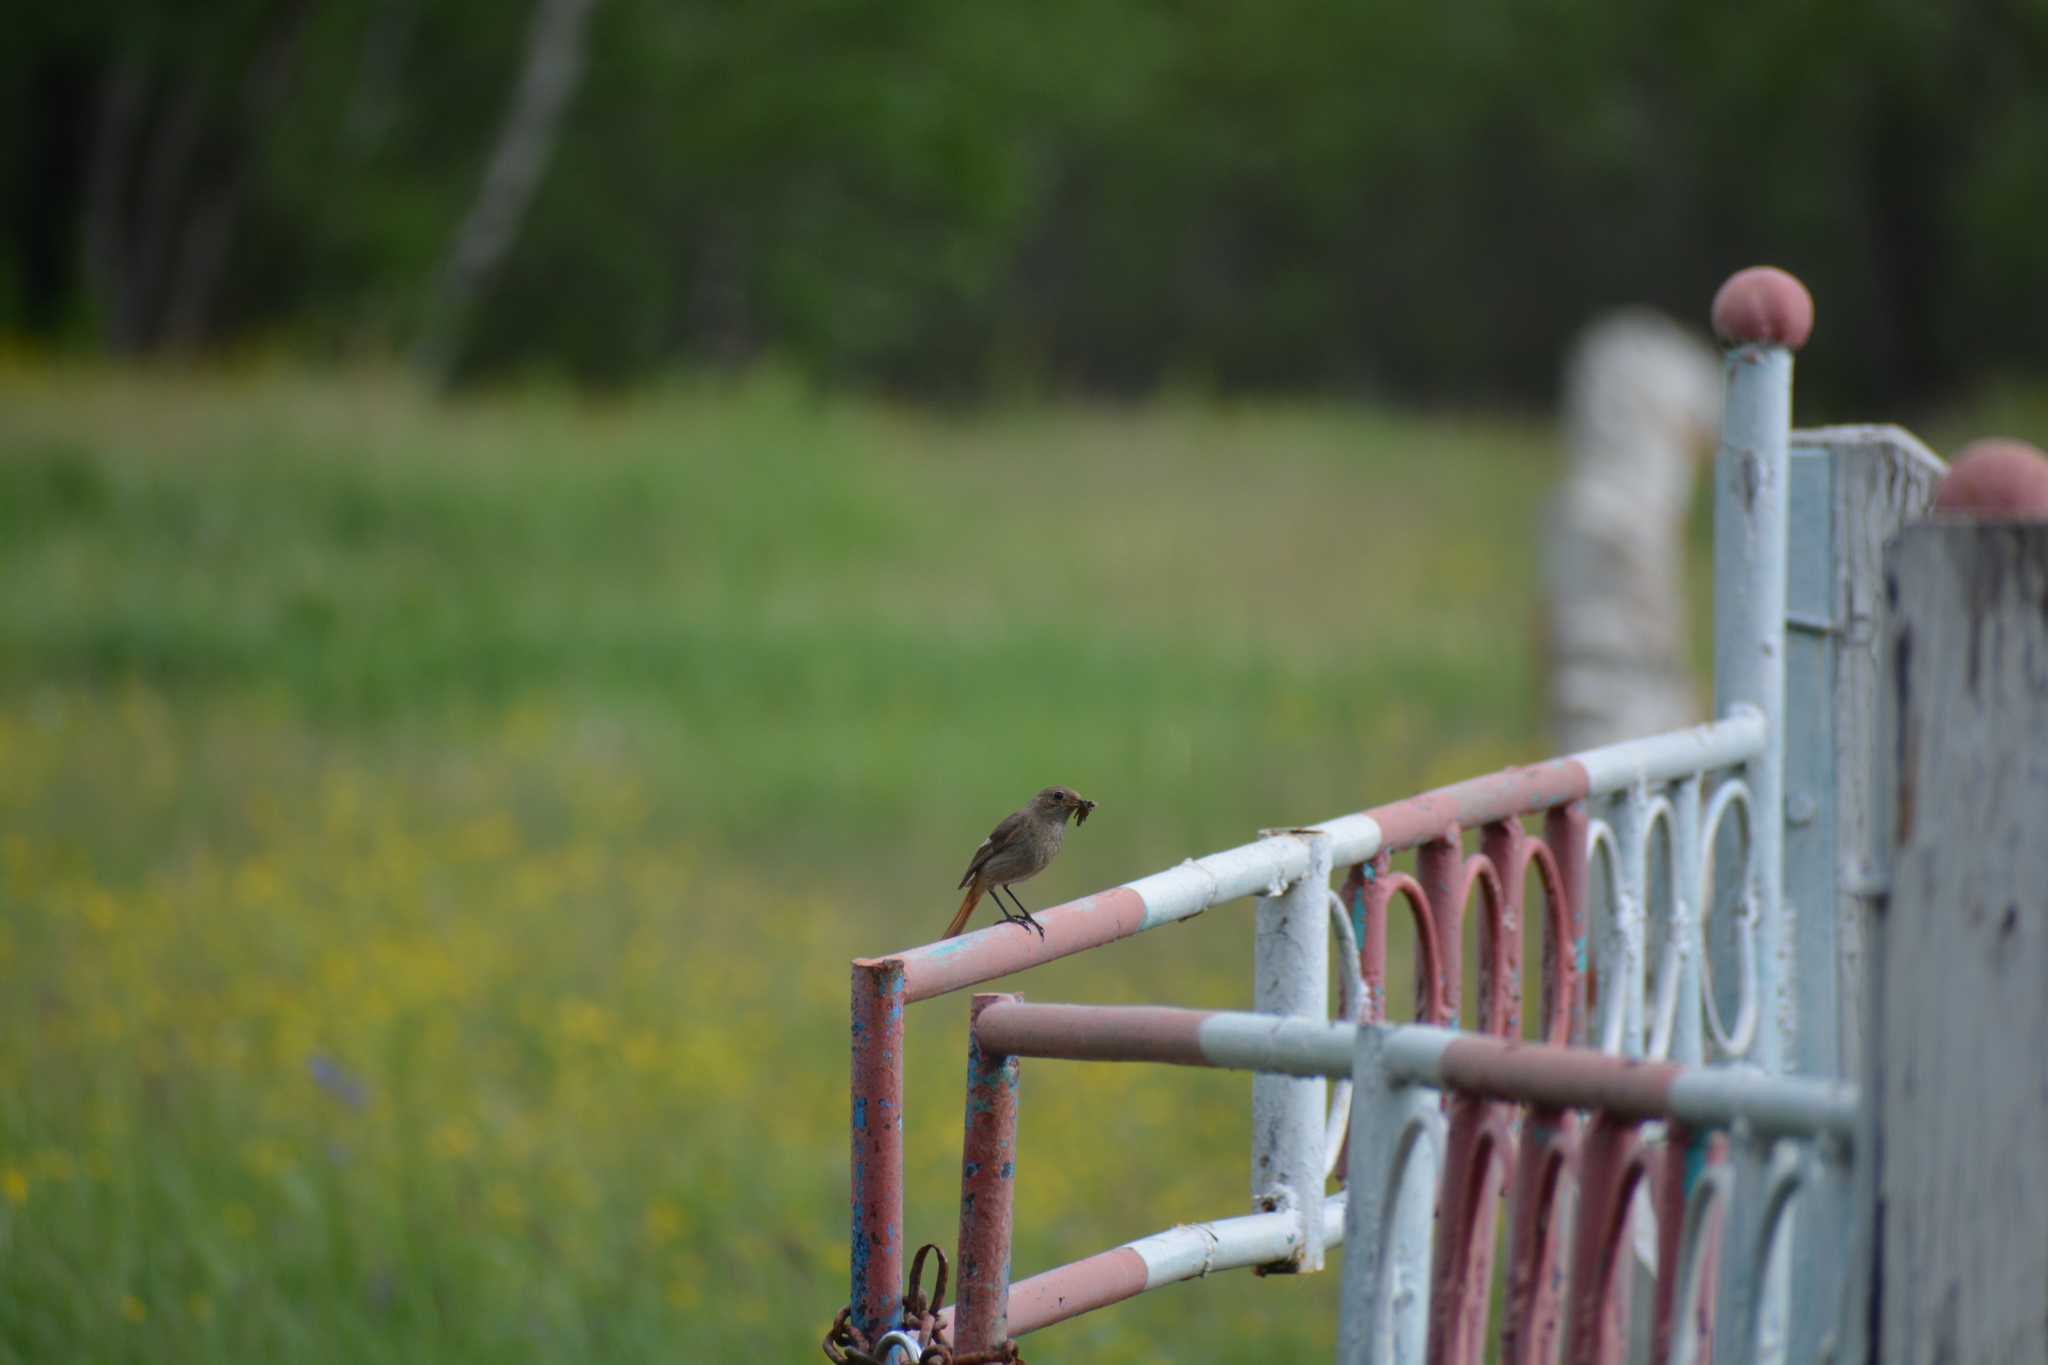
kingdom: Animalia
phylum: Chordata
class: Aves
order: Passeriformes
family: Muscicapidae
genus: Phoenicurus
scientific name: Phoenicurus auroreus
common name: Daurian redstart
